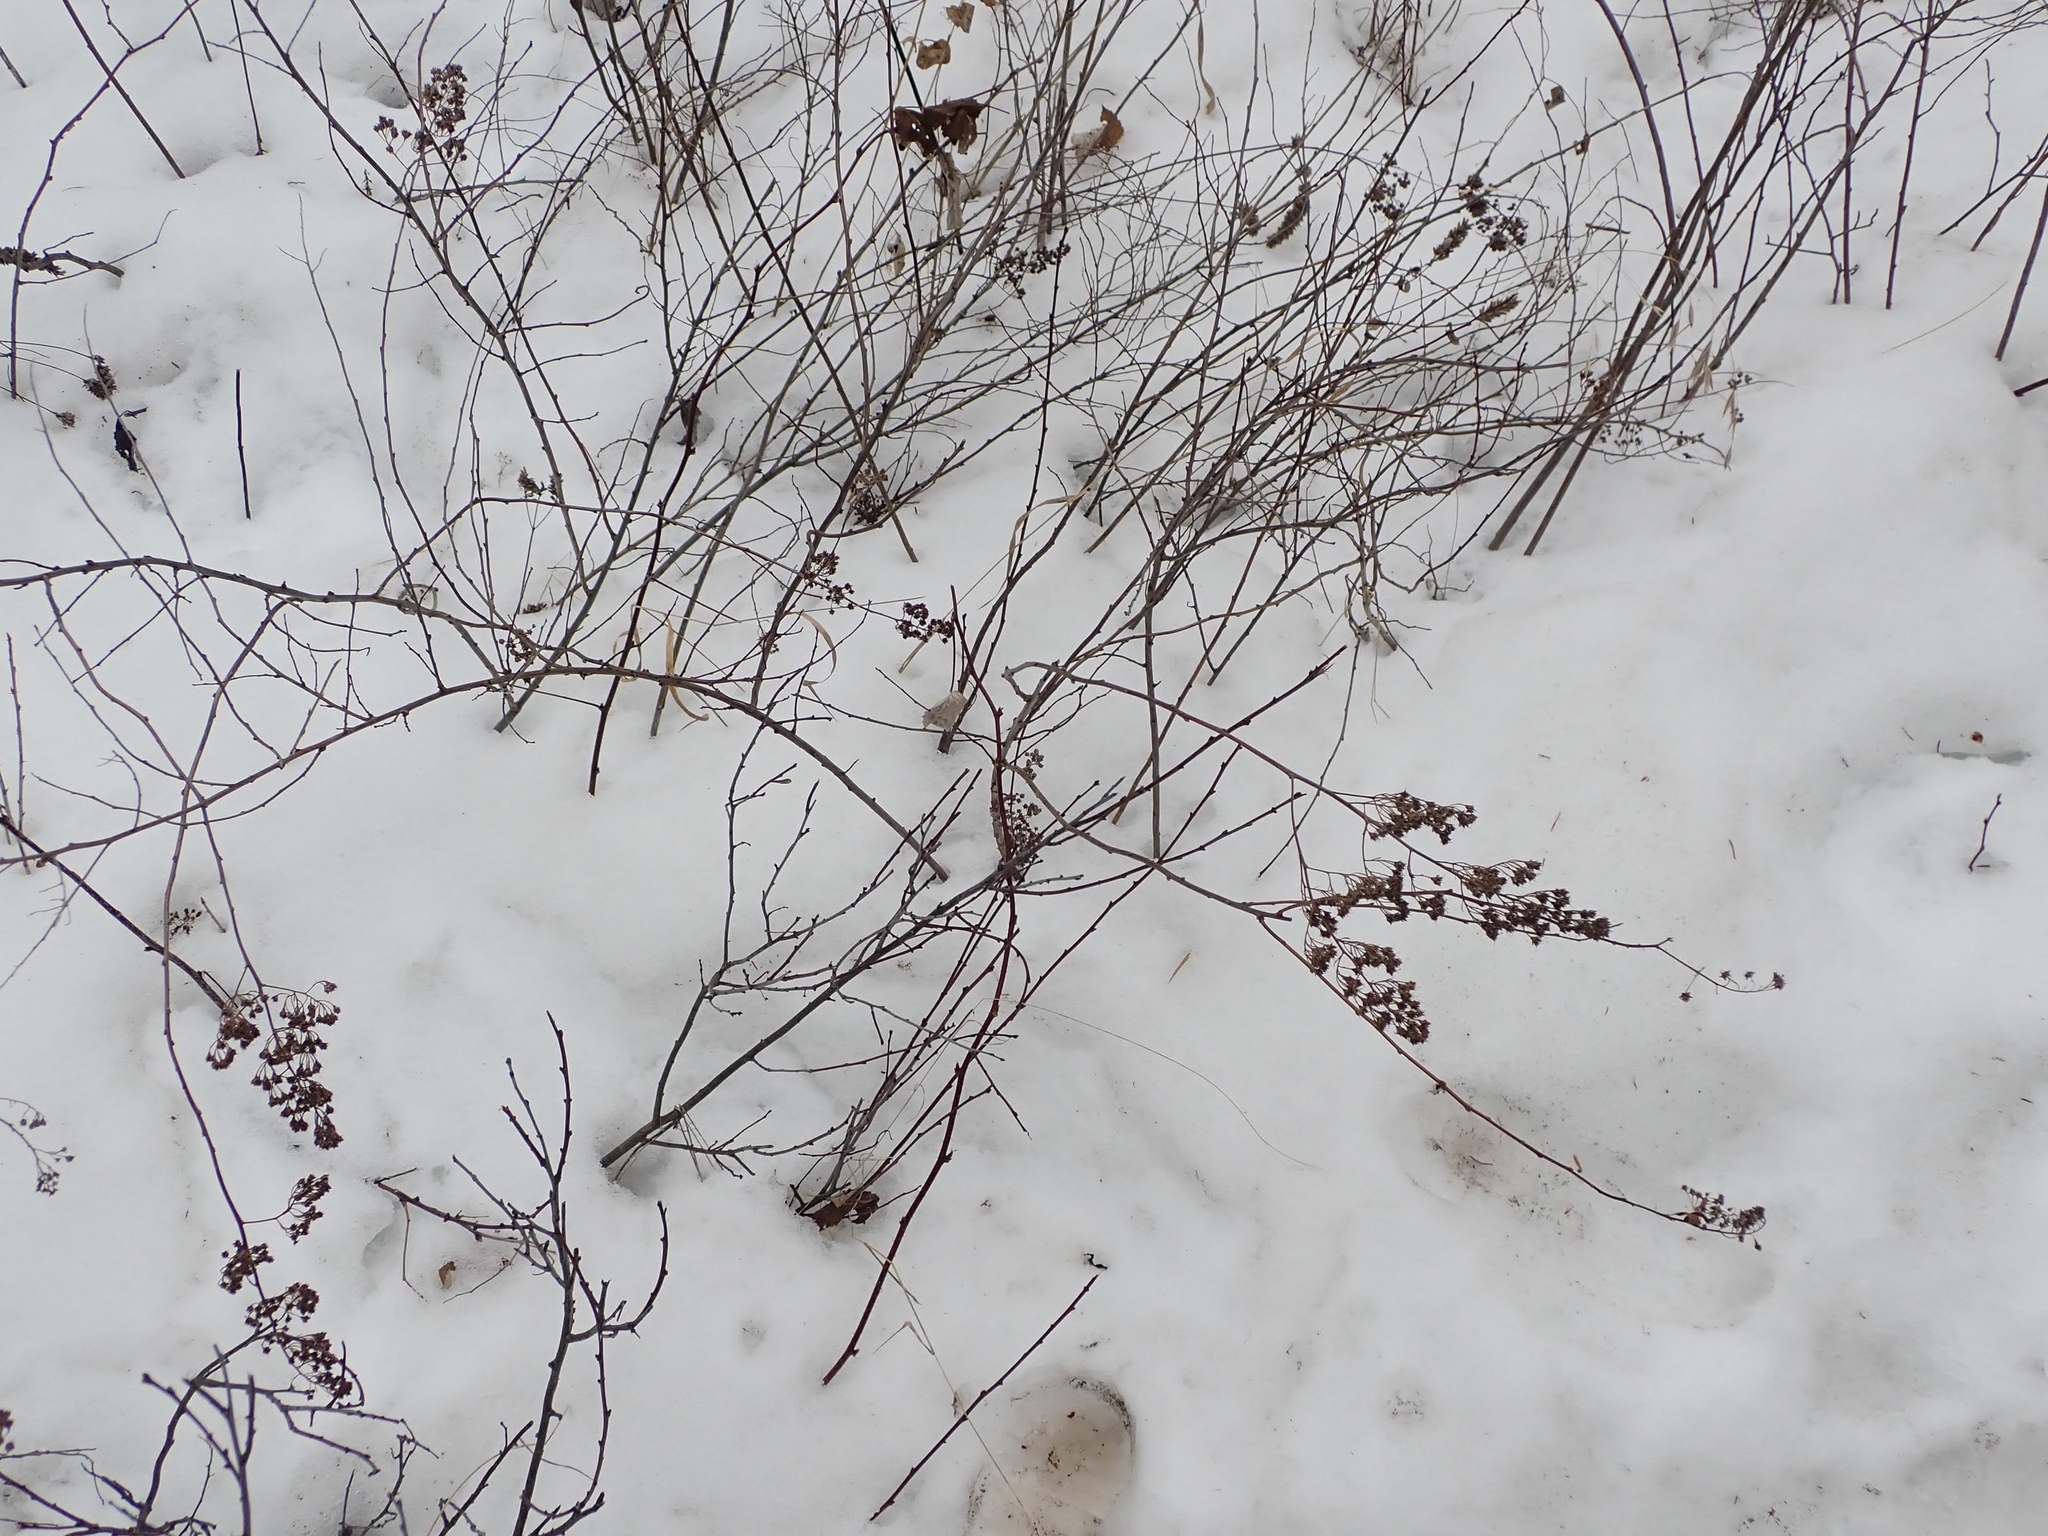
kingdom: Plantae
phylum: Tracheophyta
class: Magnoliopsida
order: Rosales
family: Rosaceae
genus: Spiraea
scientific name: Spiraea alba
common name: Pale bridewort
